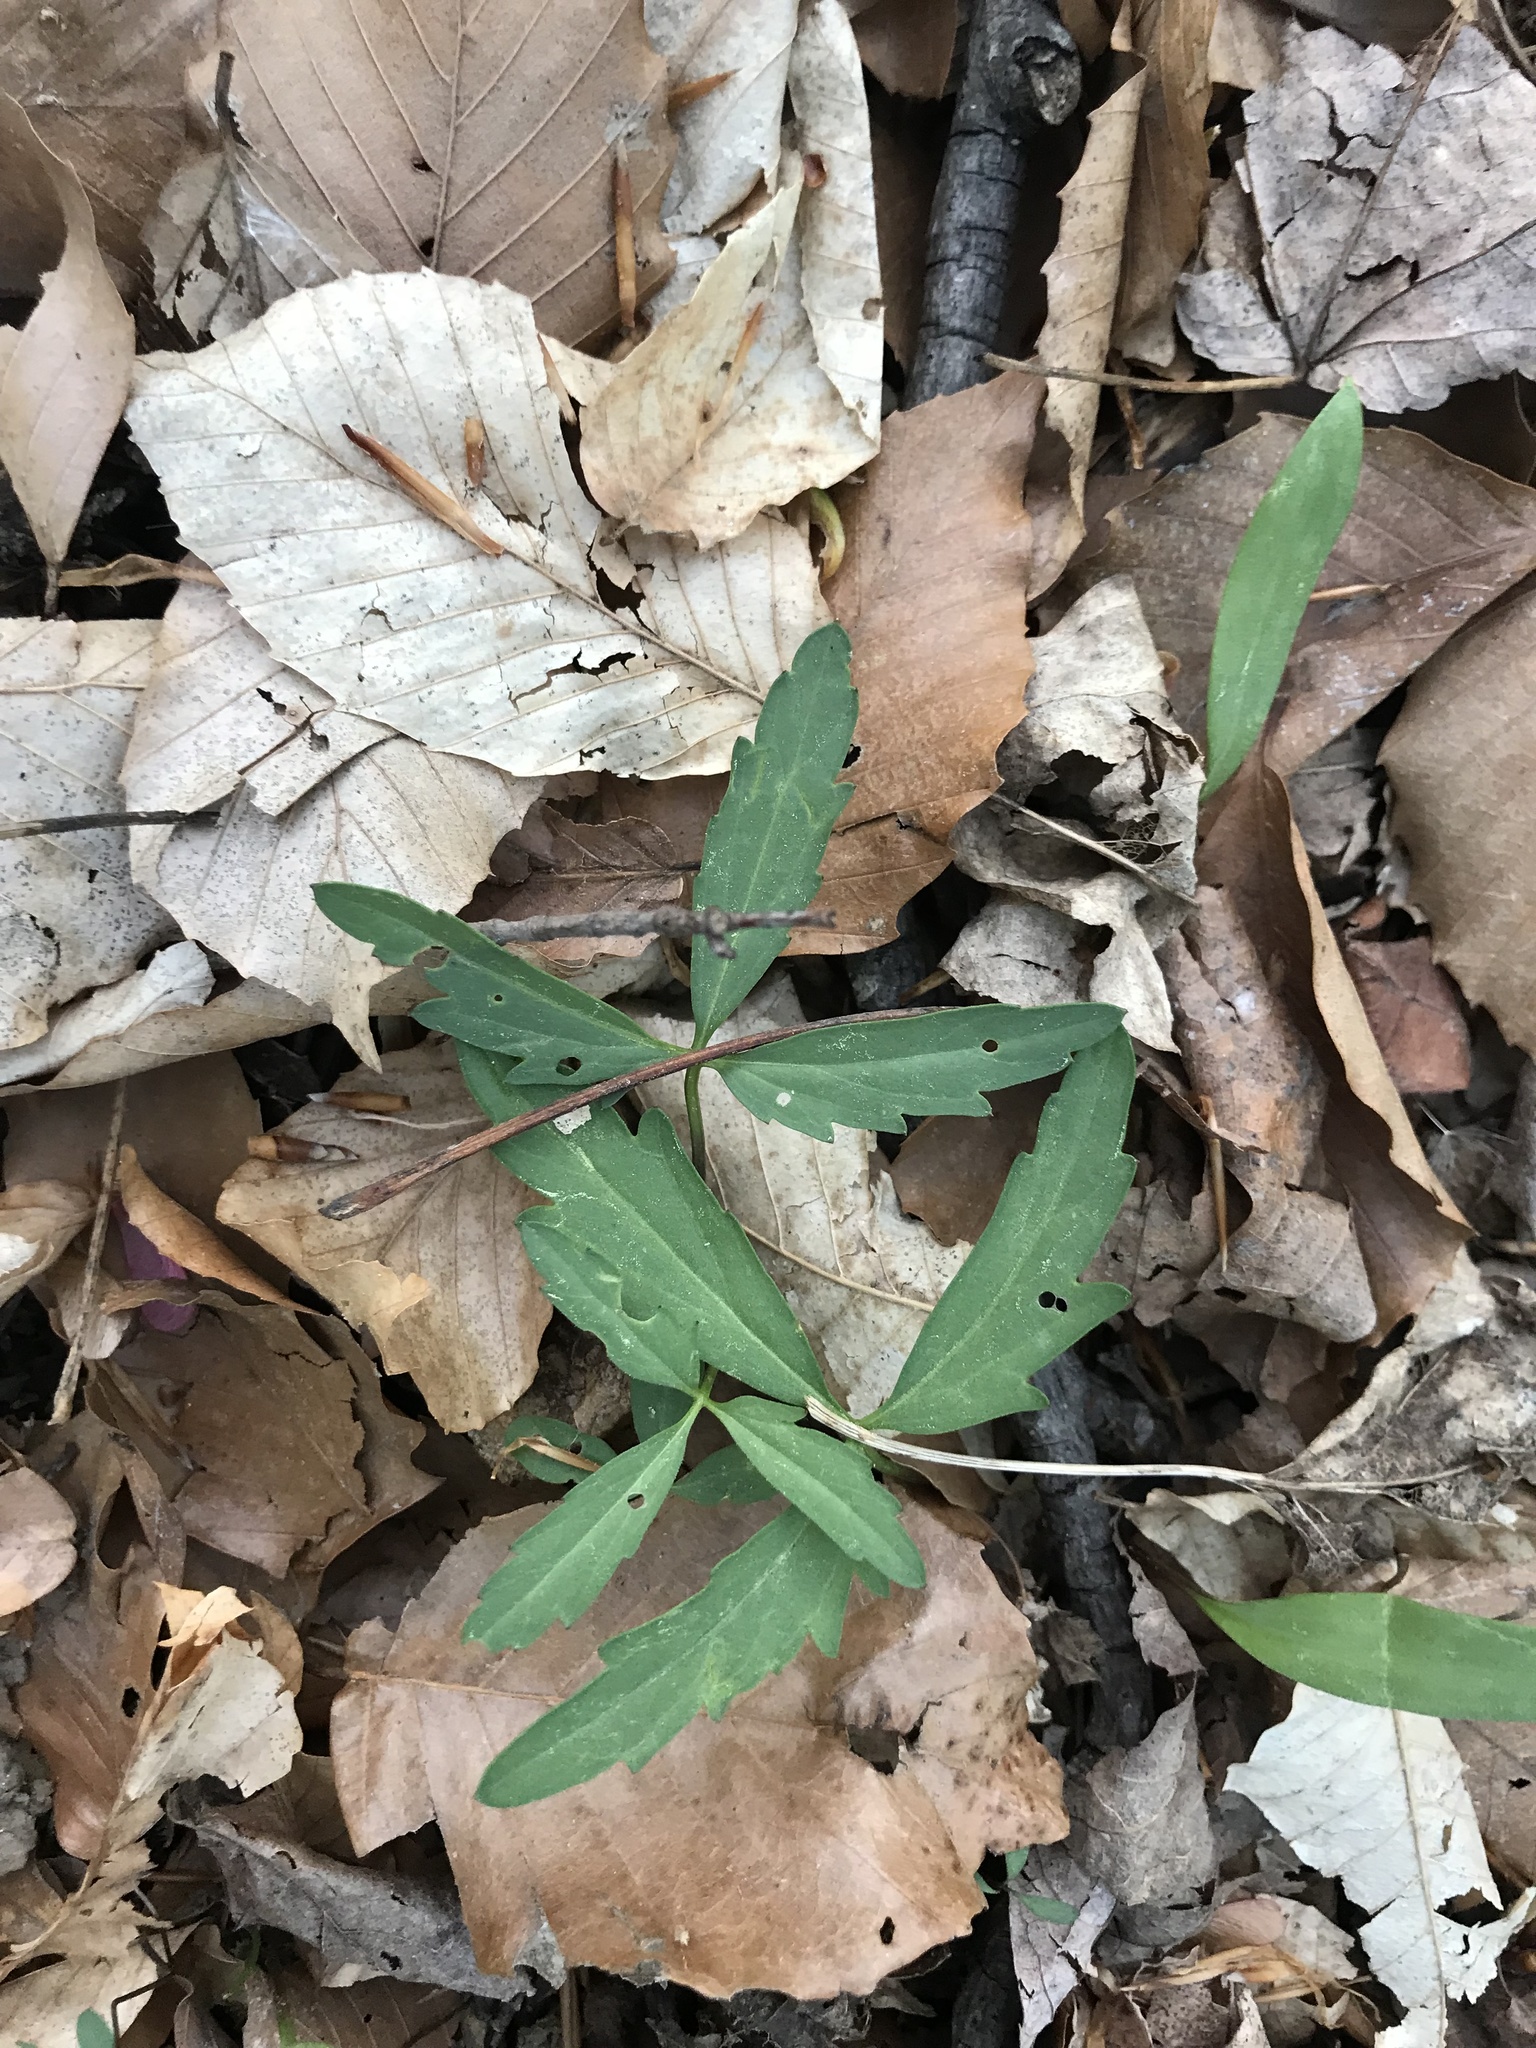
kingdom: Plantae
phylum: Tracheophyta
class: Magnoliopsida
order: Brassicales
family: Brassicaceae
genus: Cardamine
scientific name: Cardamine concatenata
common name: Cut-leaf toothcup
